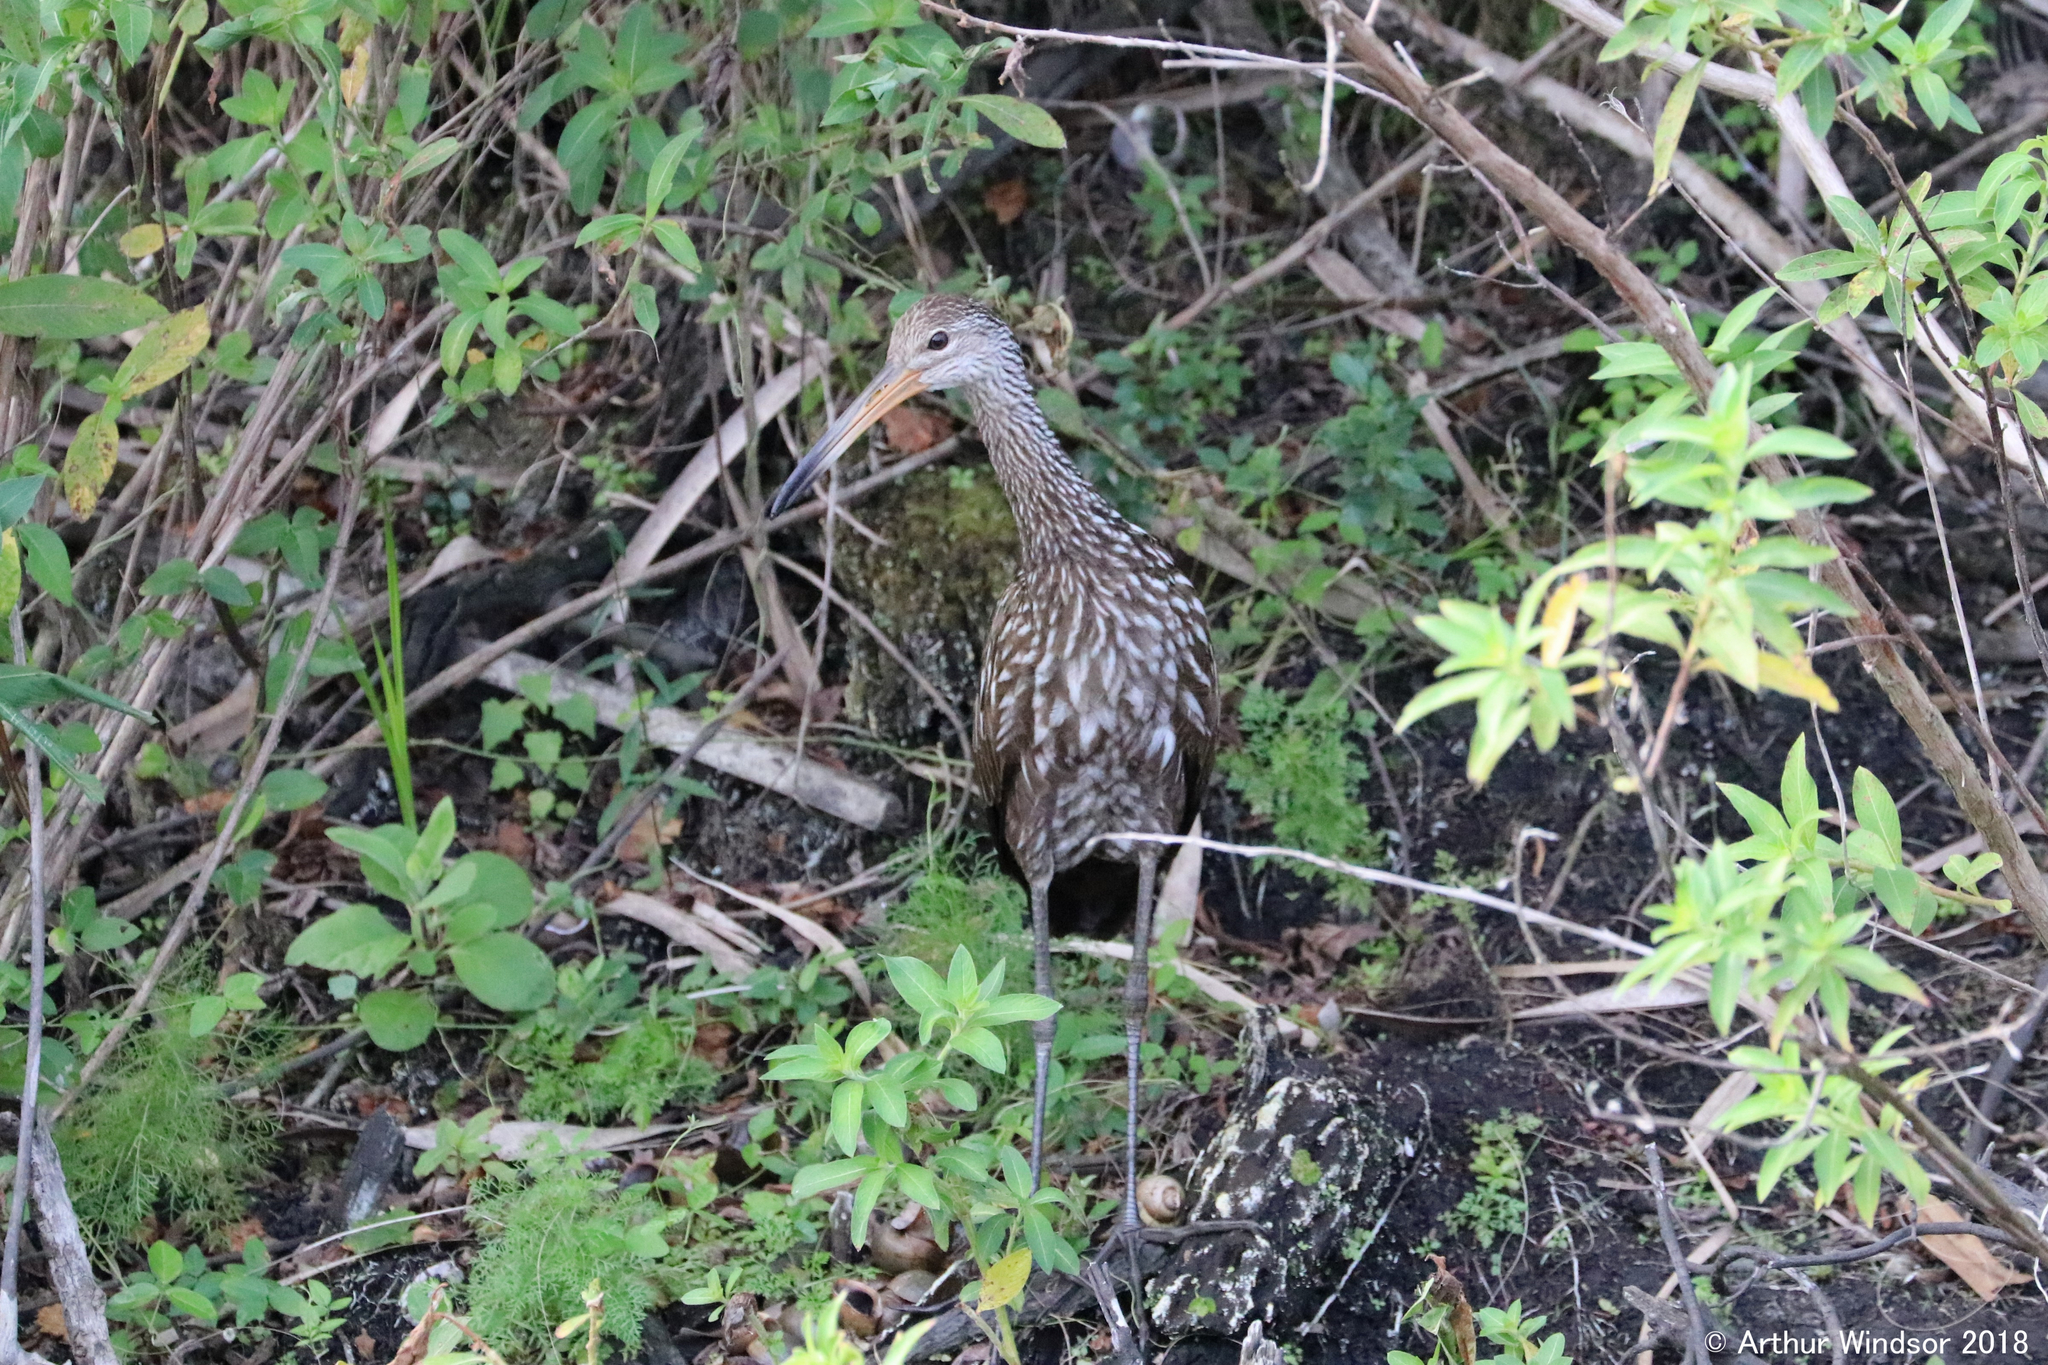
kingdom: Animalia
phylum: Chordata
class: Aves
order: Gruiformes
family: Aramidae
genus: Aramus
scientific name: Aramus guarauna
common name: Limpkin
